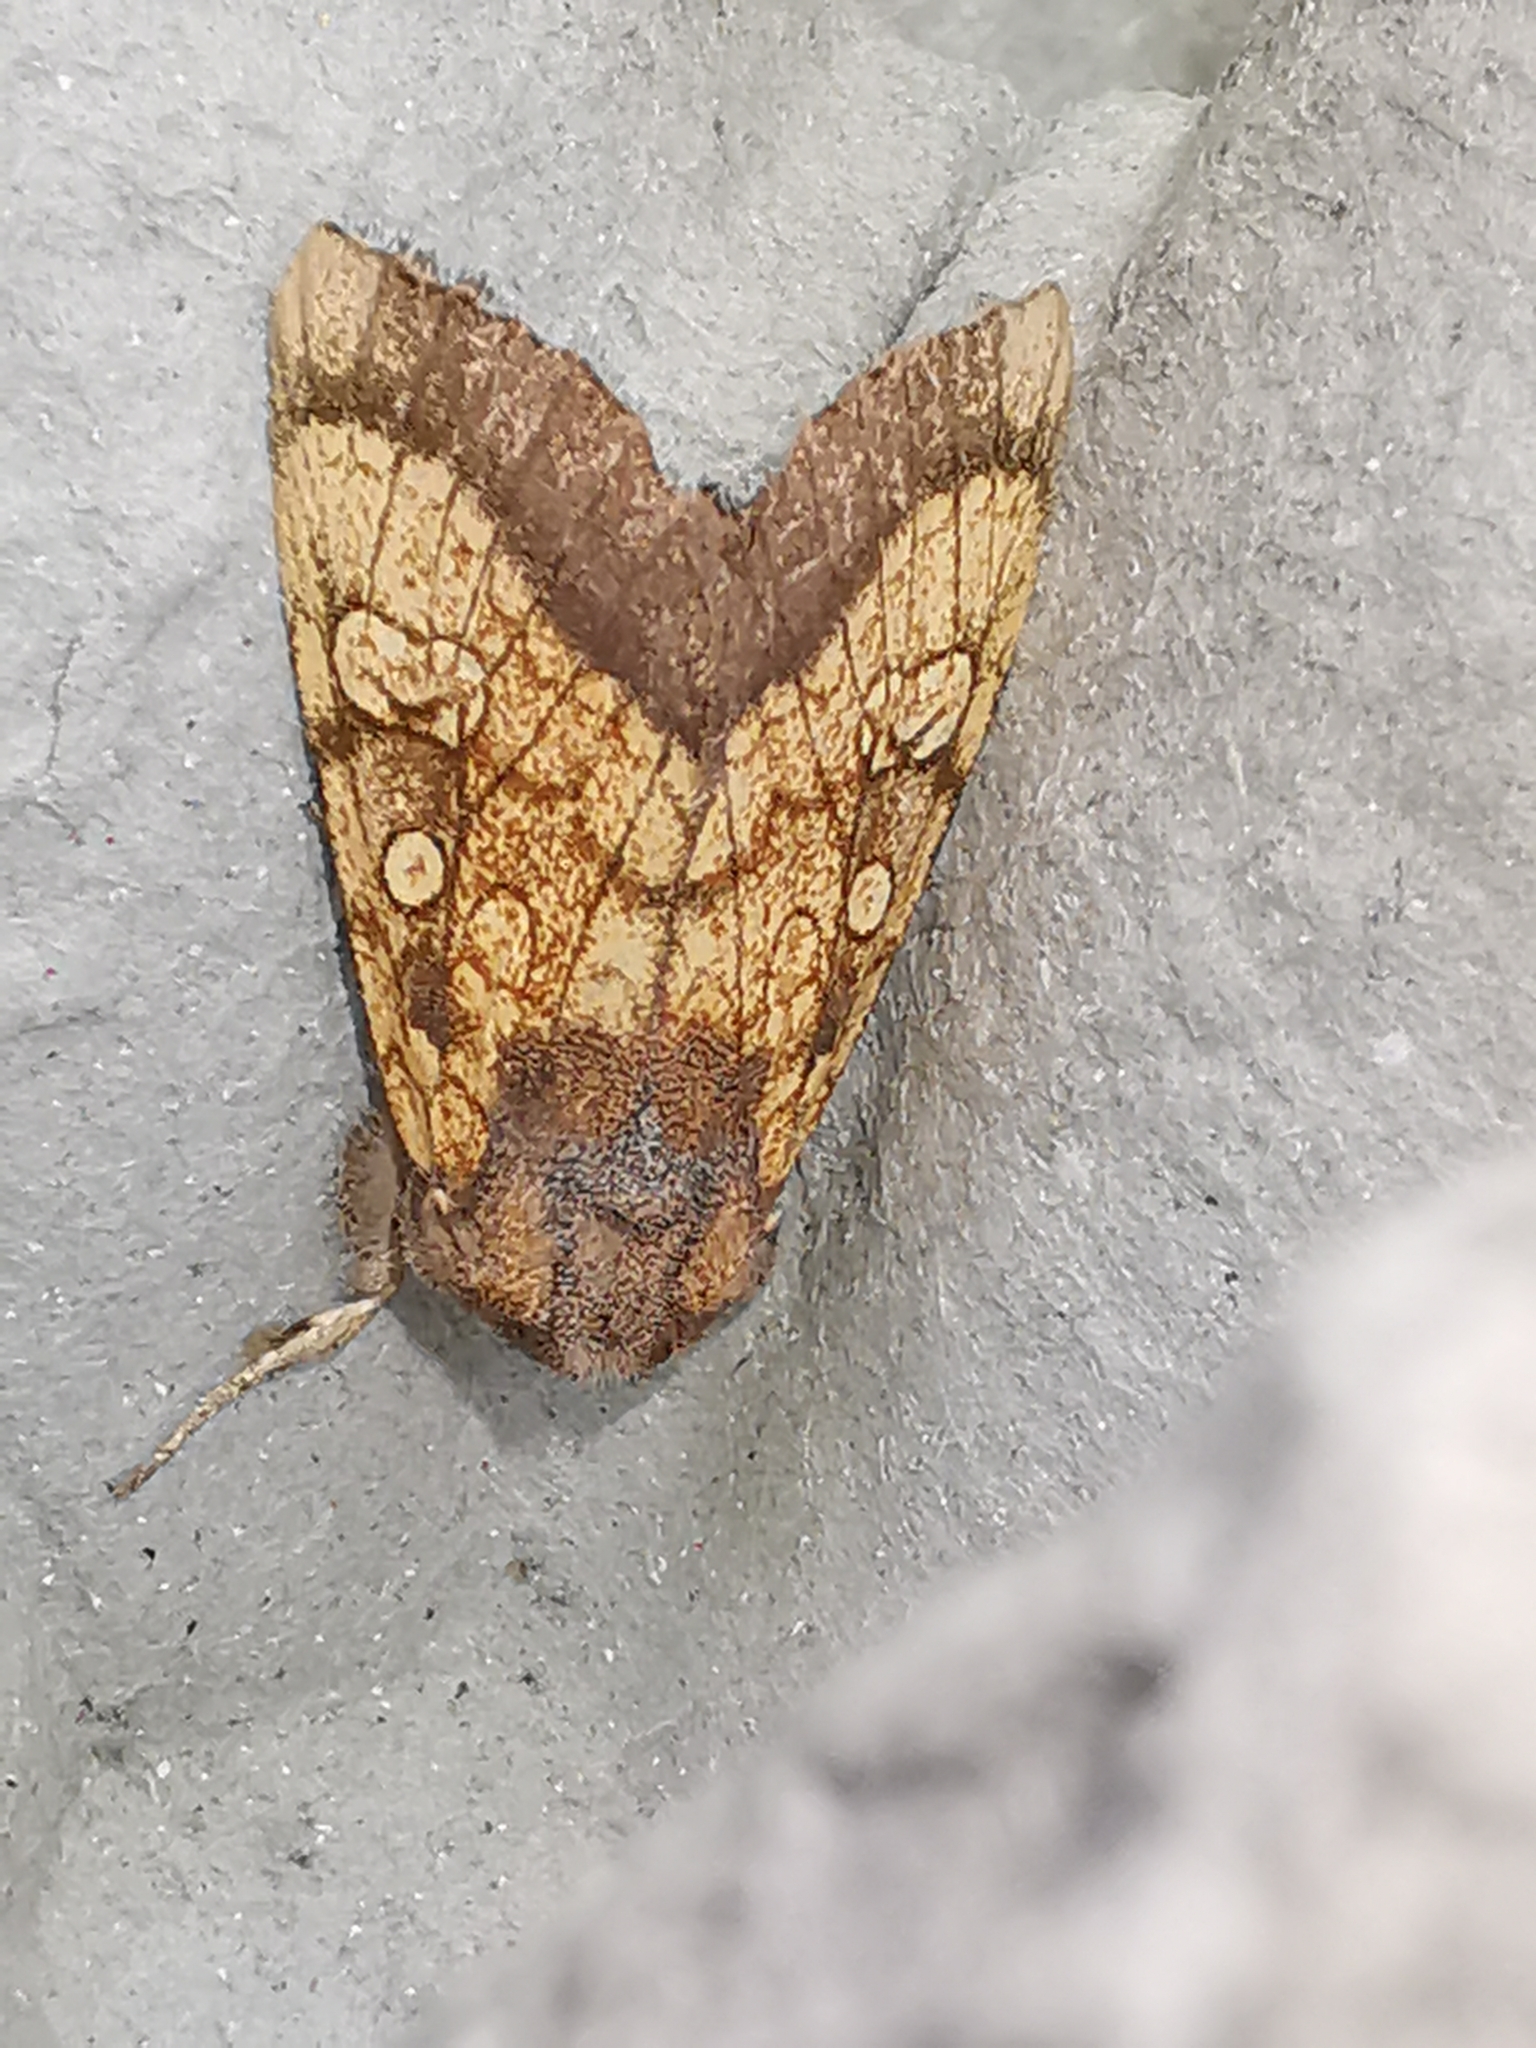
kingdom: Animalia
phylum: Arthropoda
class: Insecta
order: Lepidoptera
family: Noctuidae
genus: Gortyna
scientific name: Gortyna flavago
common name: Frosted orange
